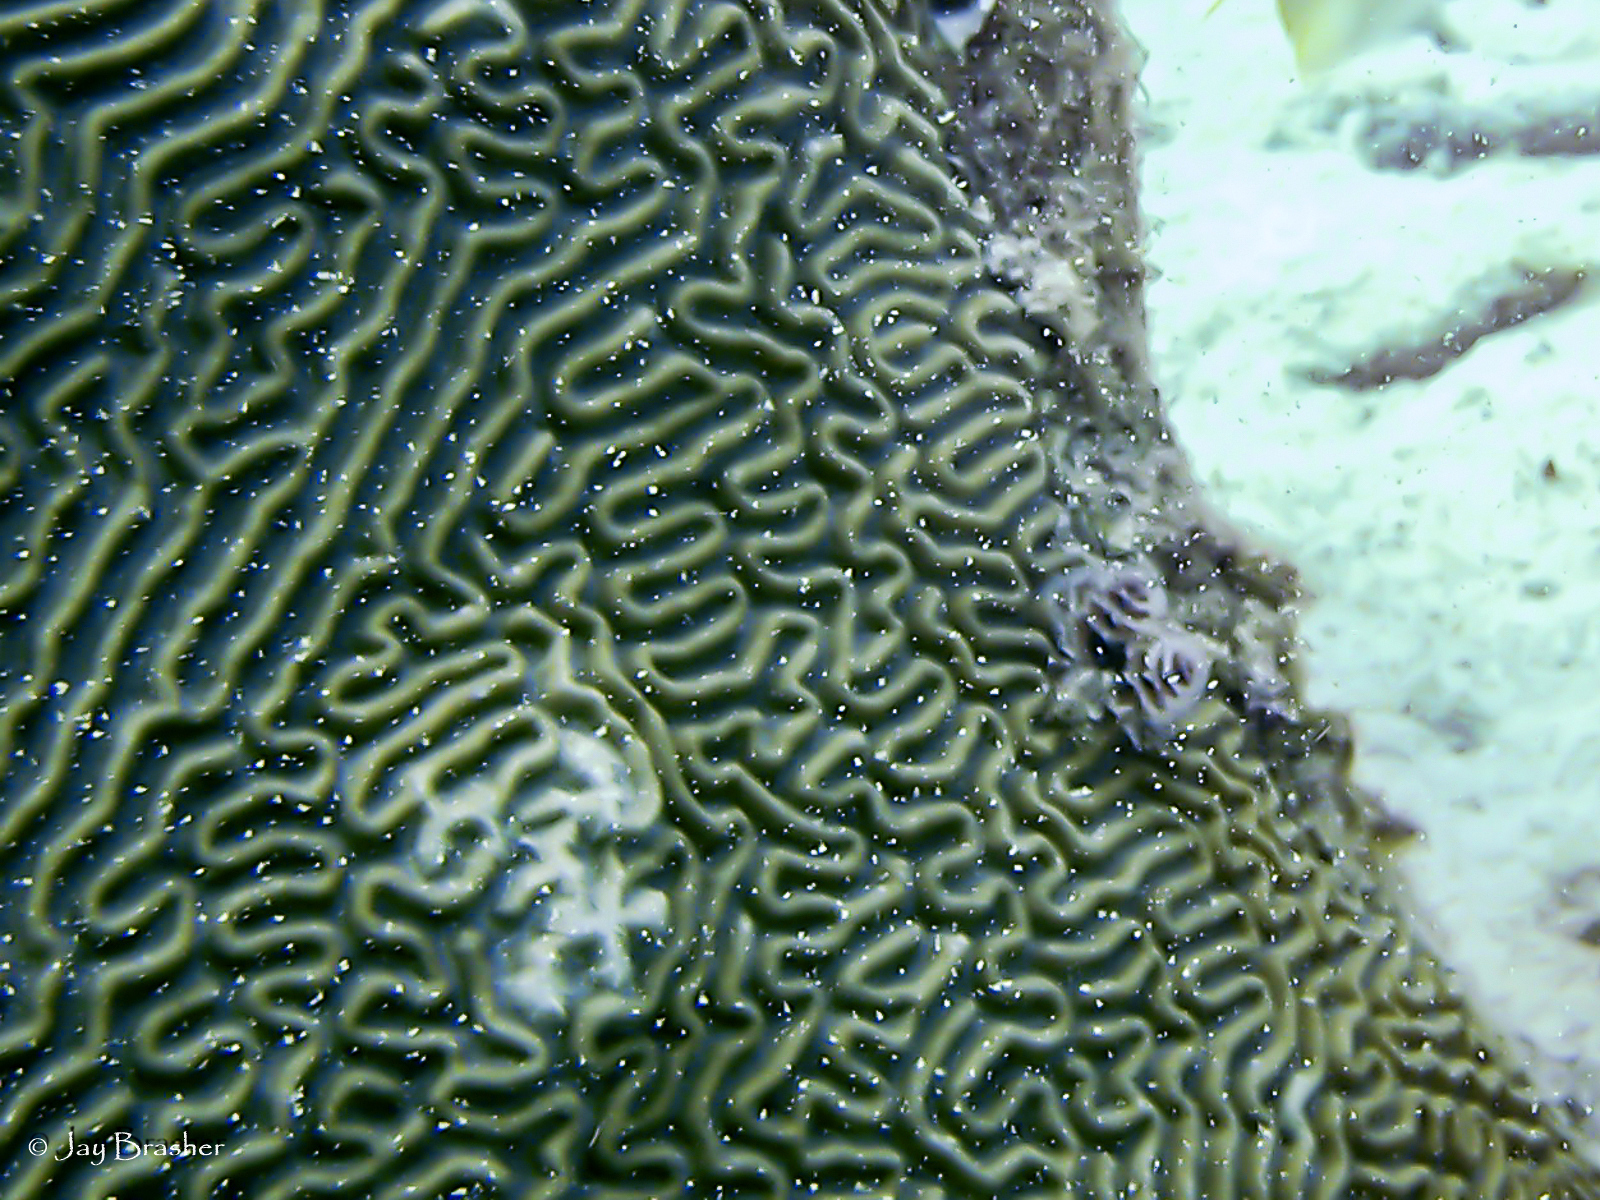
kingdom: Animalia
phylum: Cnidaria
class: Anthozoa
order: Scleractinia
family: Faviidae
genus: Pseudodiploria
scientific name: Pseudodiploria strigosa
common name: Symmetrical brain coral
